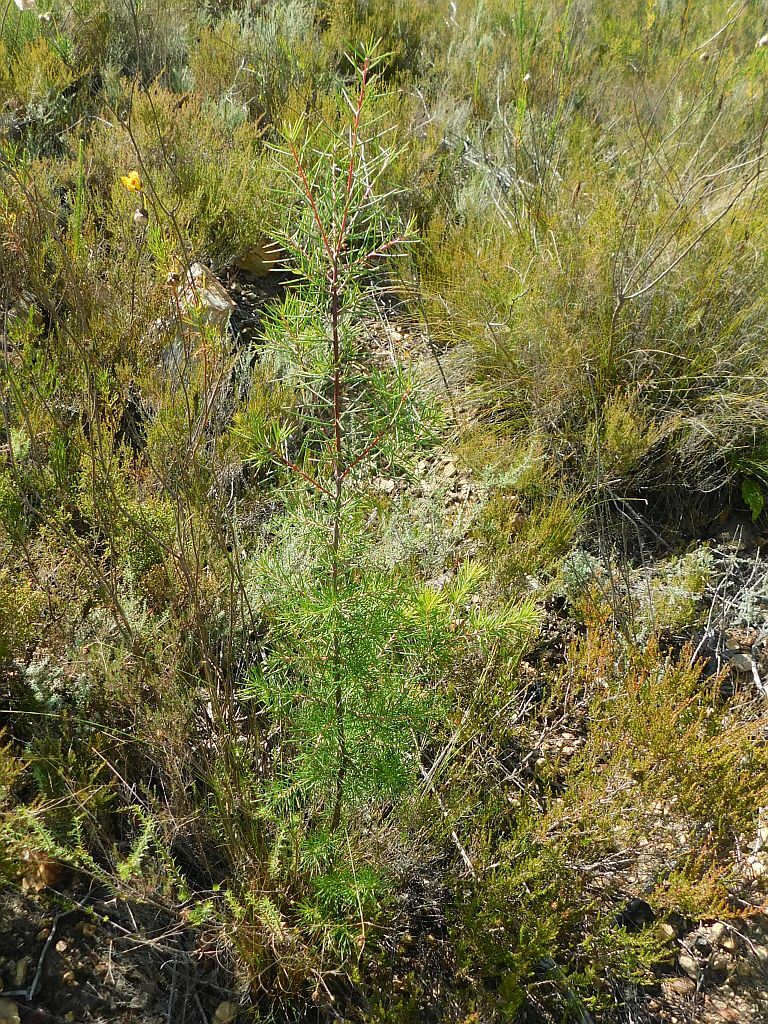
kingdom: Plantae
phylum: Tracheophyta
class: Magnoliopsida
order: Proteales
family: Proteaceae
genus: Hakea
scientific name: Hakea sericea
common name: Needle bush
